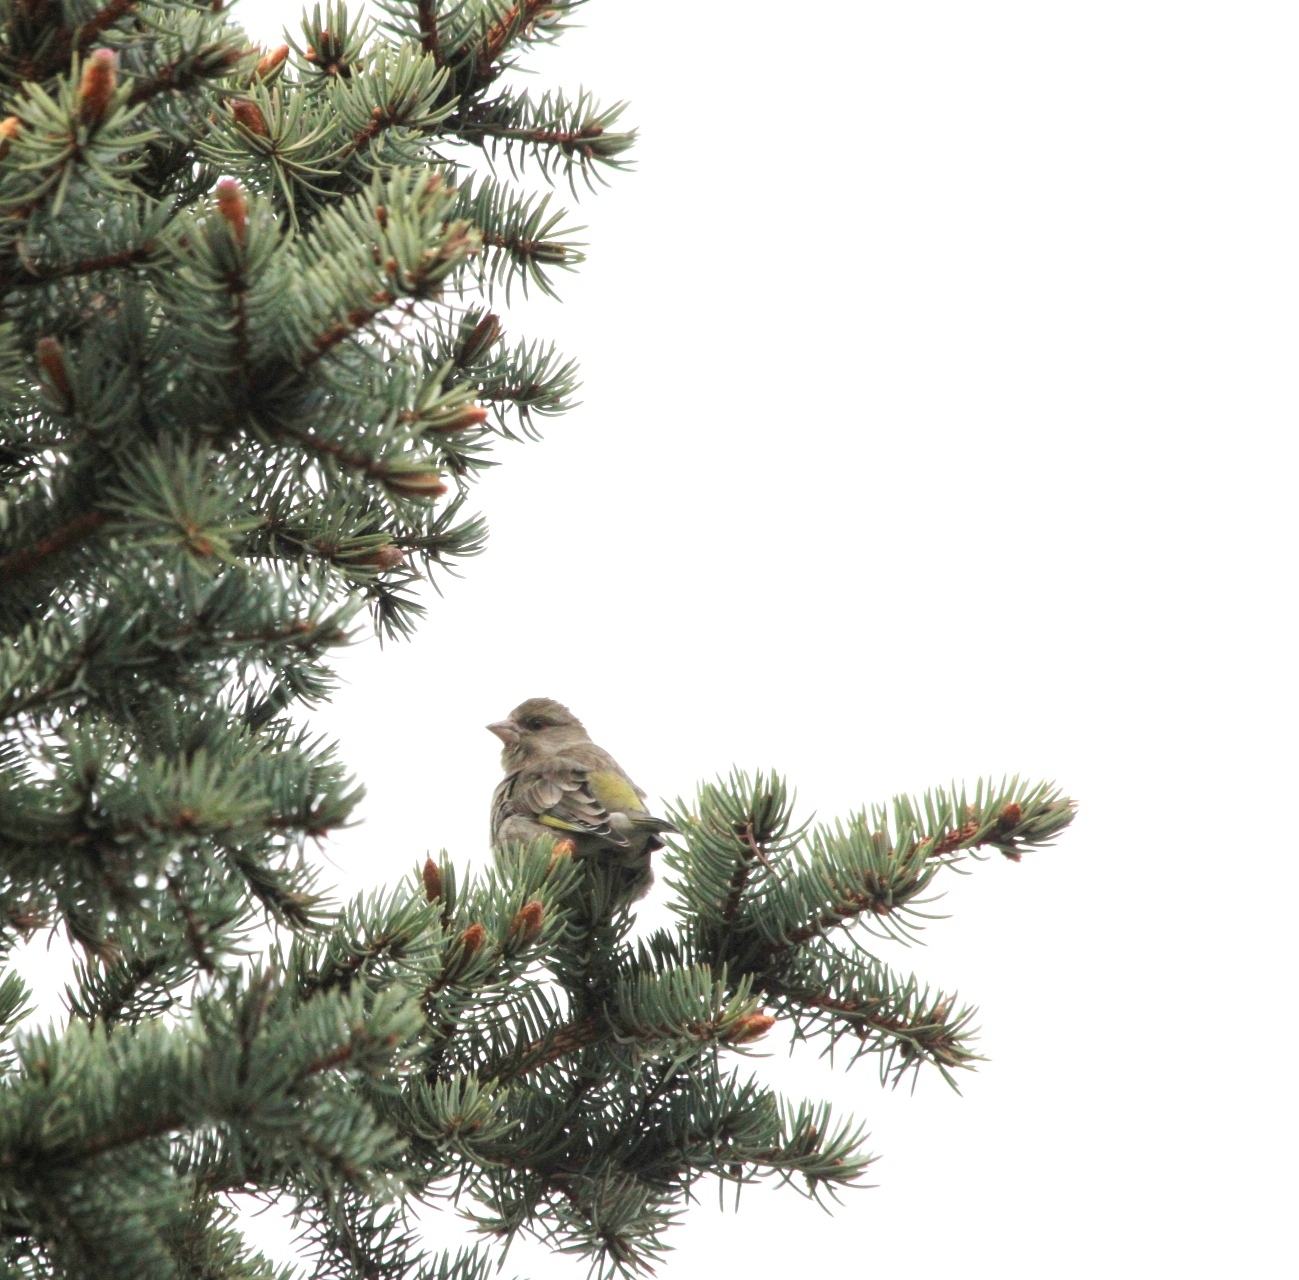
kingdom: Plantae
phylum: Tracheophyta
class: Liliopsida
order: Poales
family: Poaceae
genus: Chloris
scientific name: Chloris chloris
